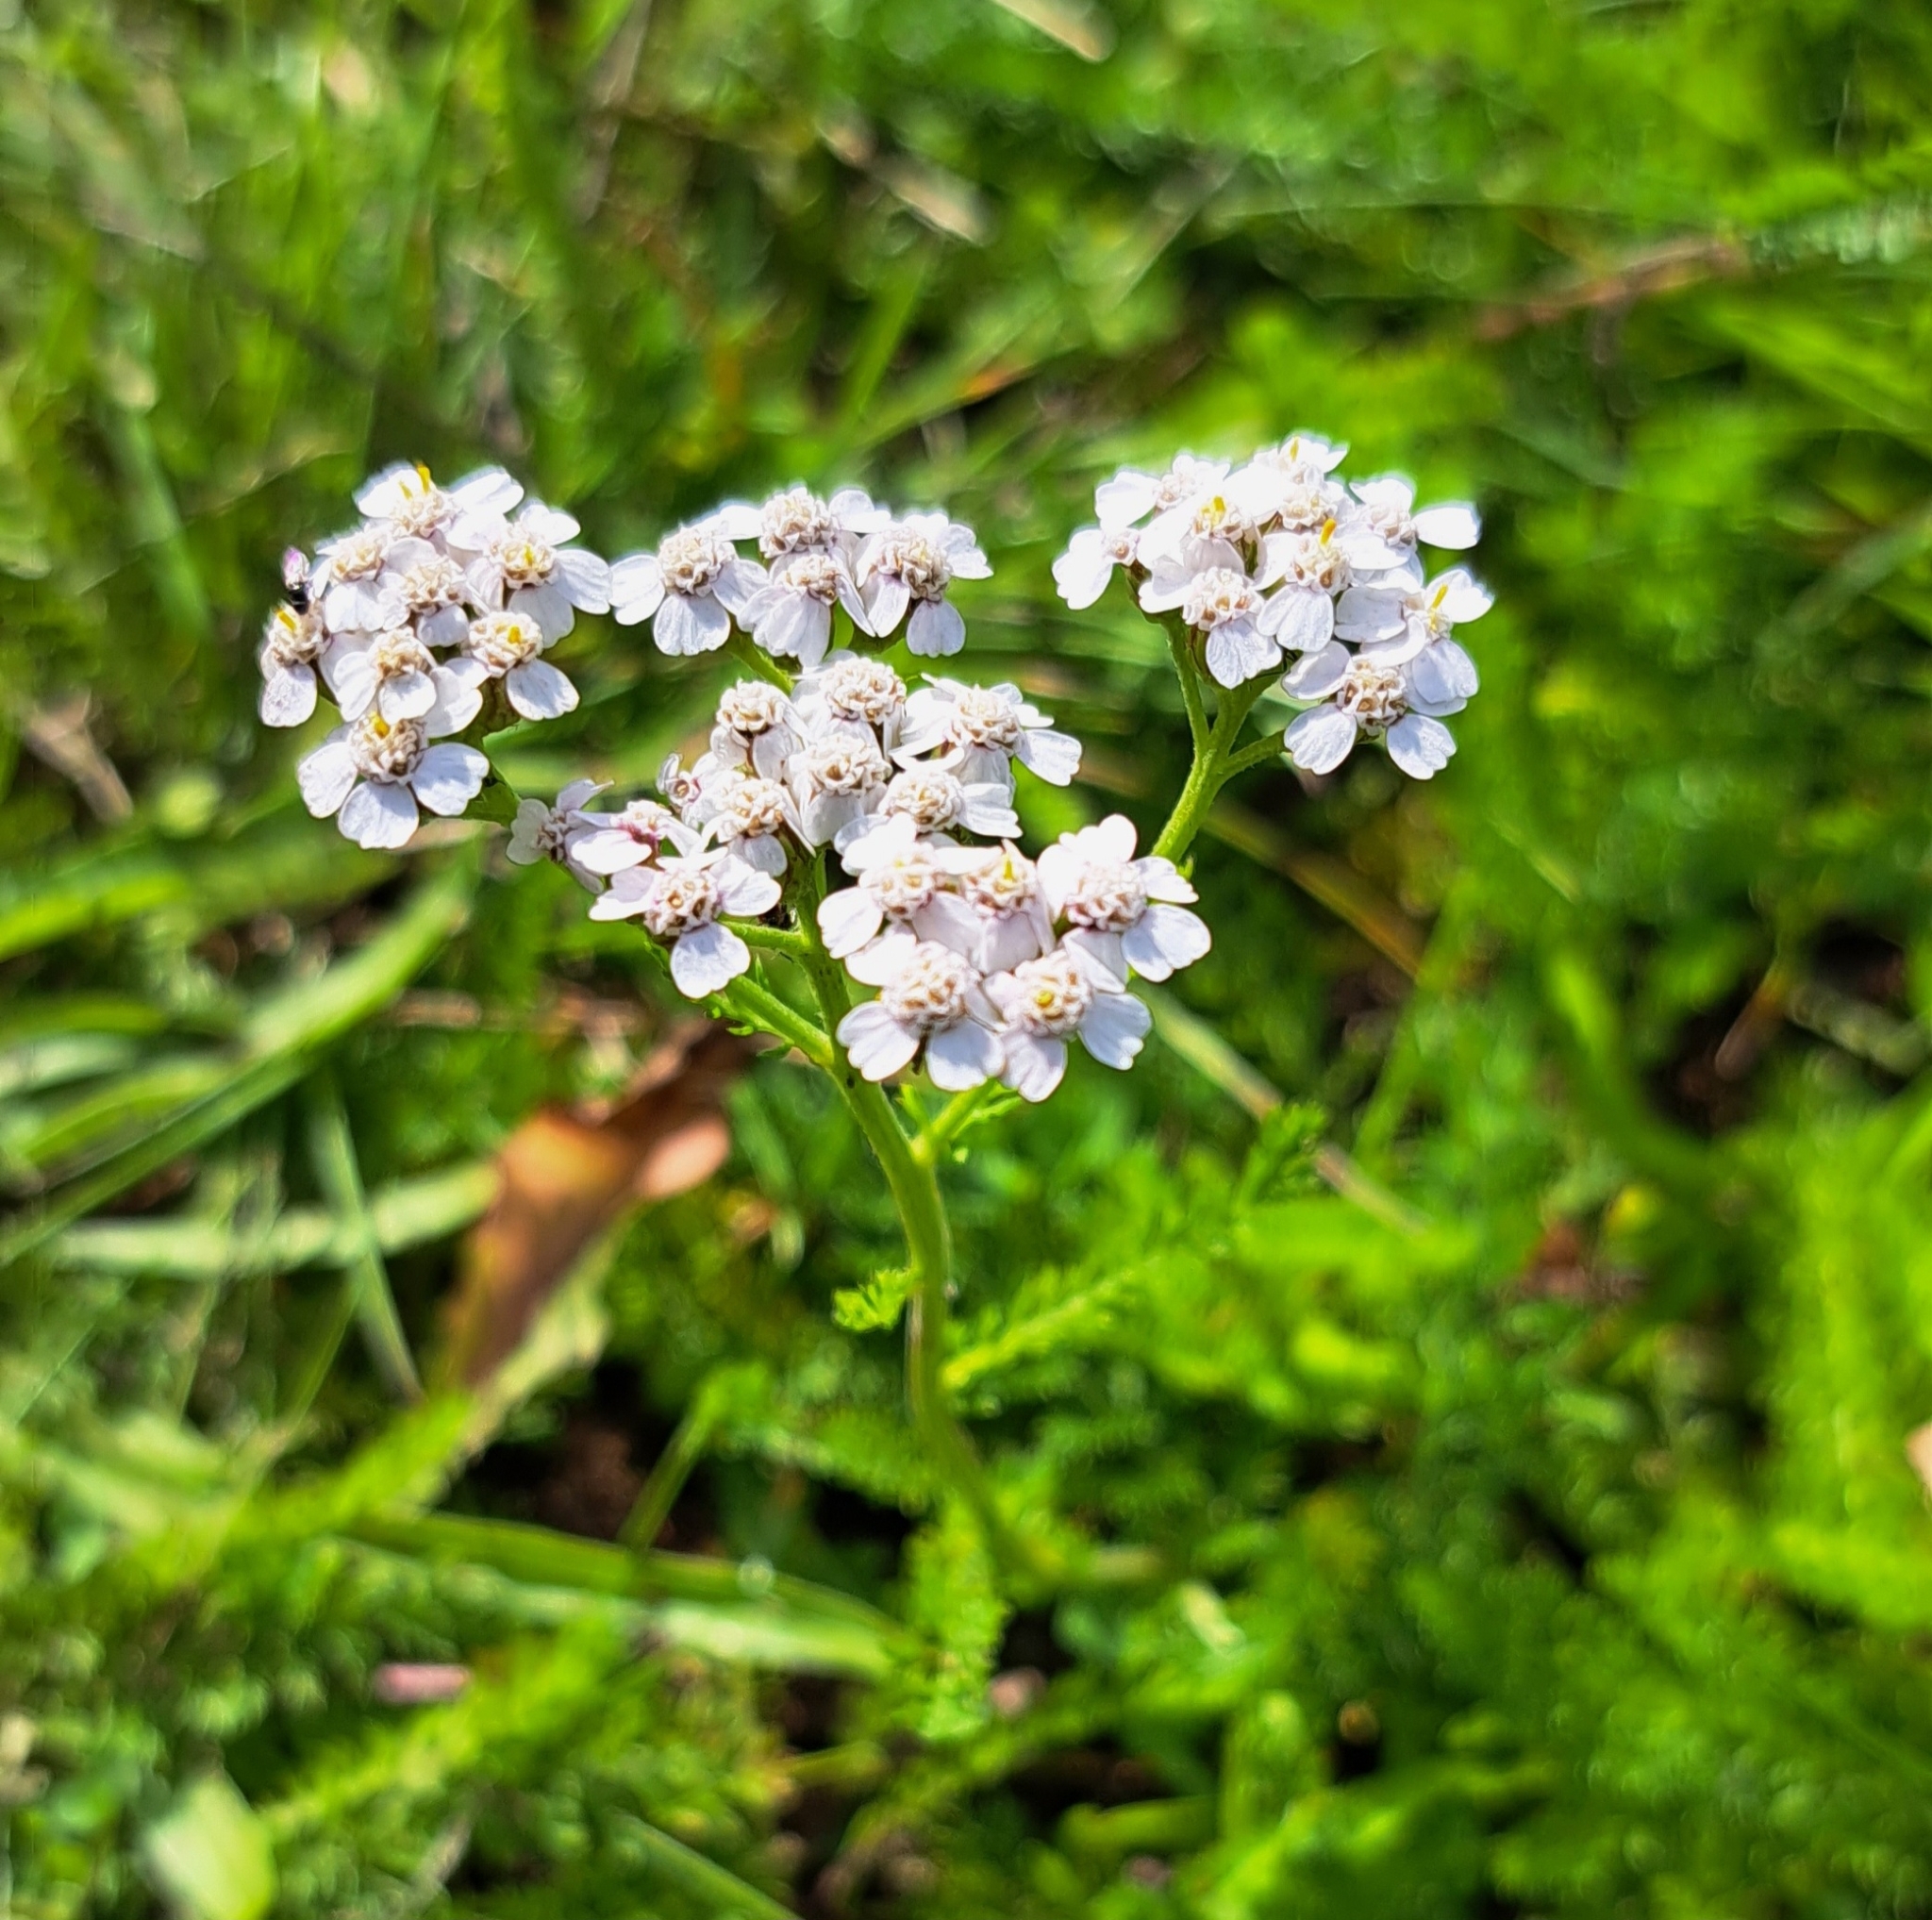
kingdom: Plantae
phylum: Tracheophyta
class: Magnoliopsida
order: Asterales
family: Asteraceae
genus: Achillea
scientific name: Achillea millefolium
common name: Yarrow
